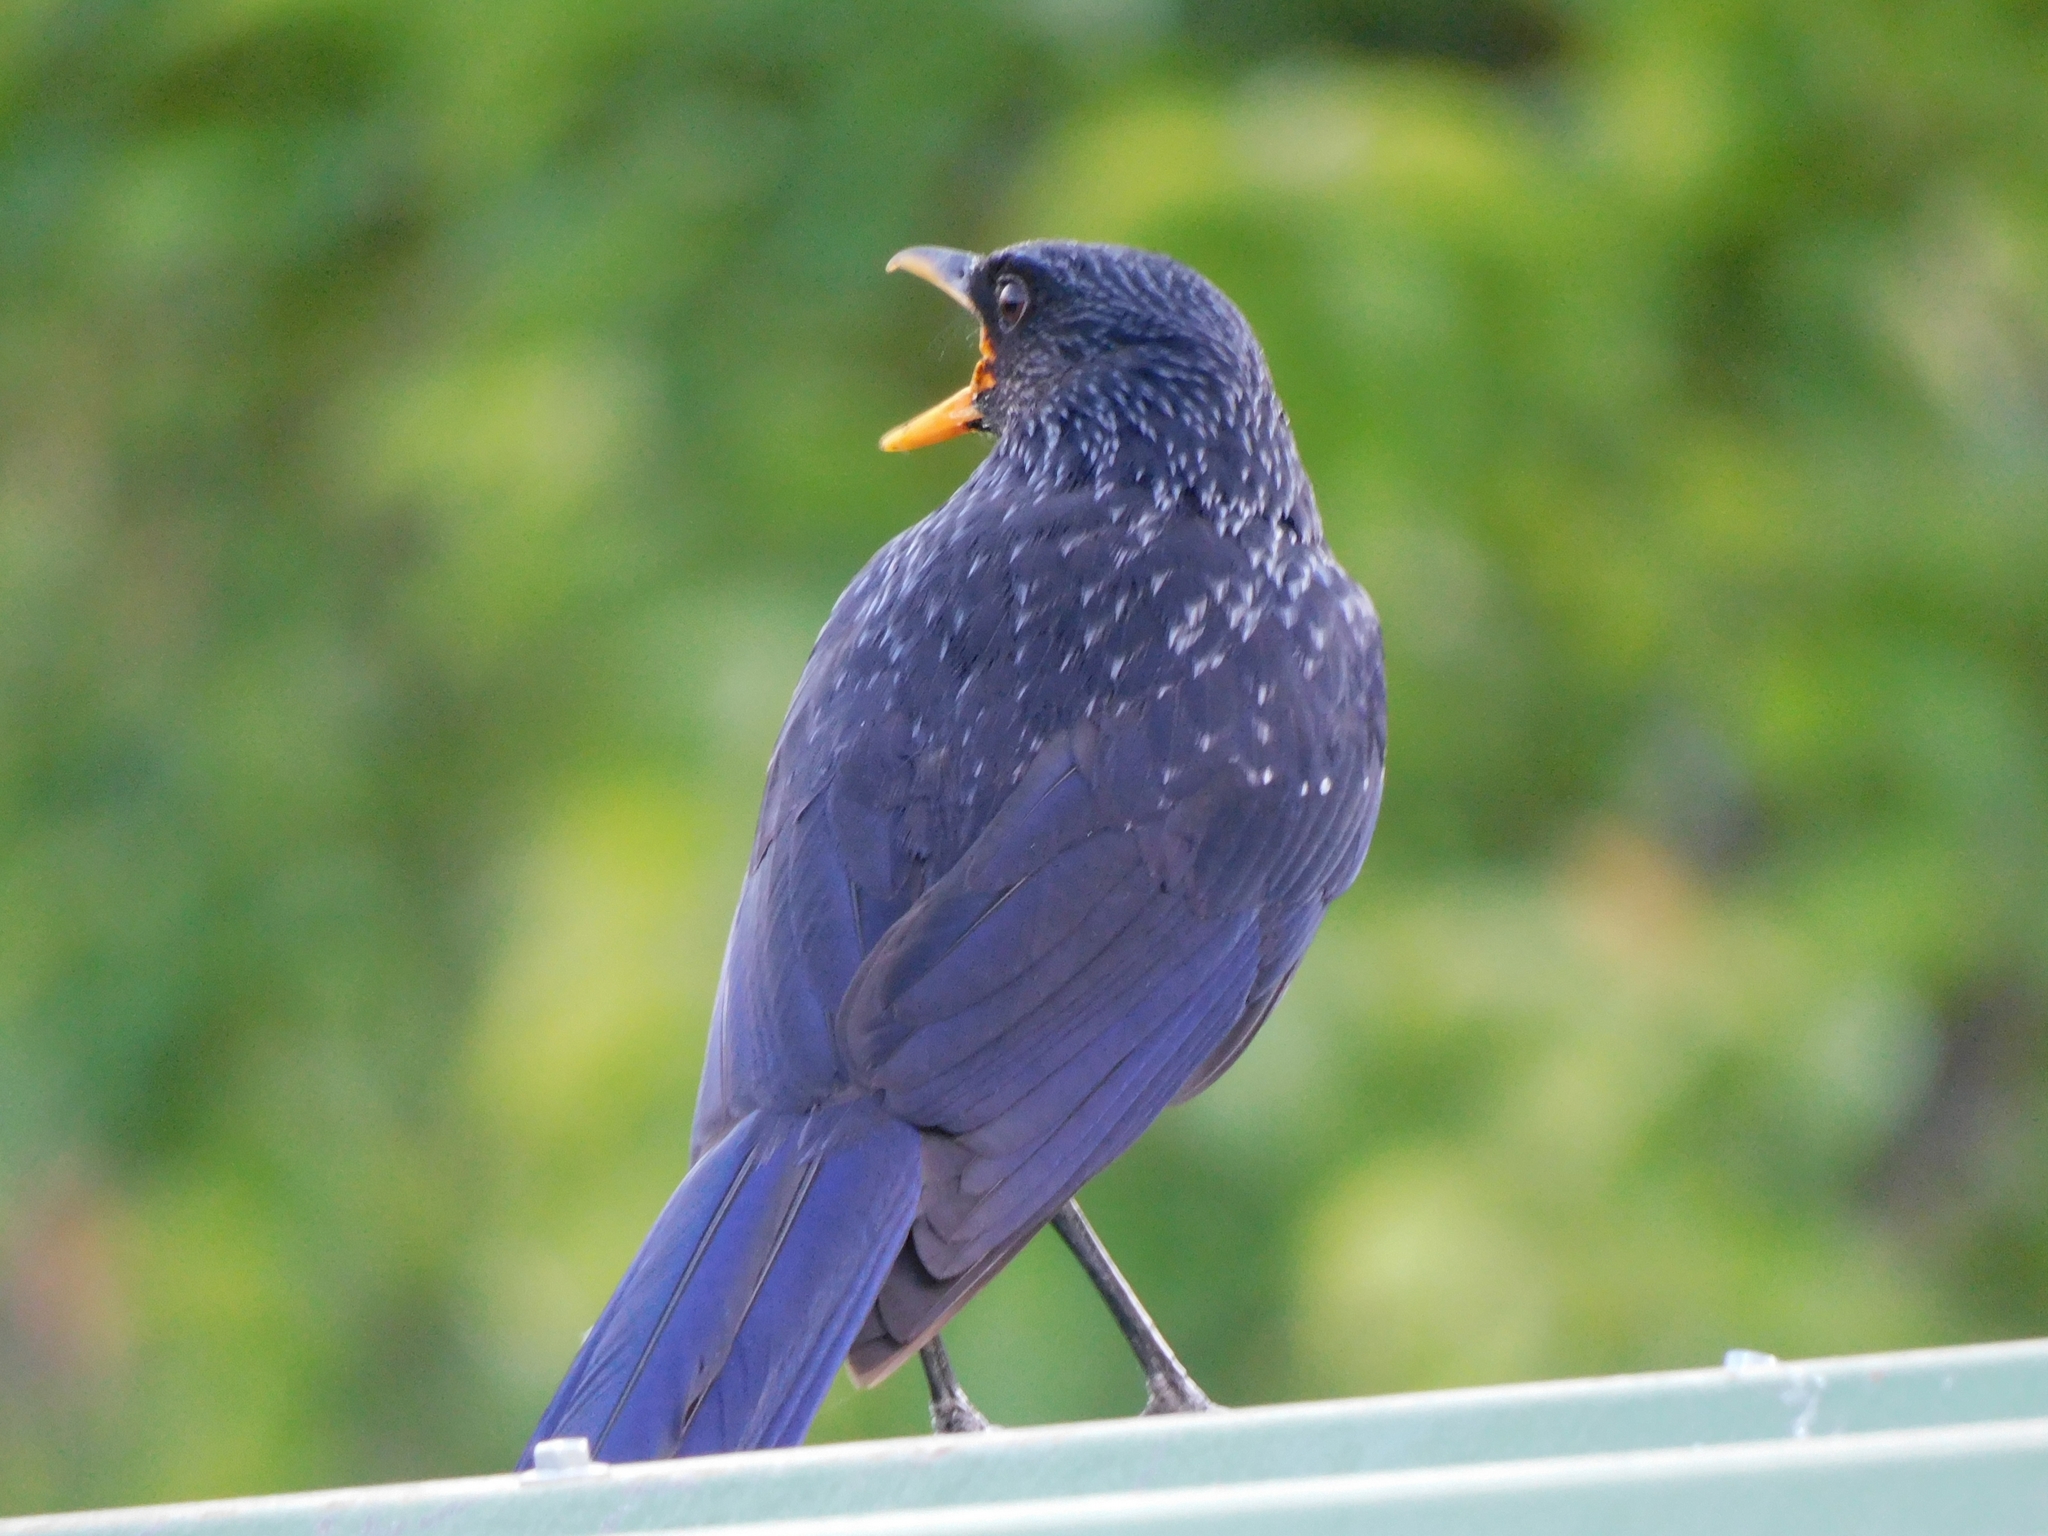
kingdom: Animalia
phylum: Chordata
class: Aves
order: Passeriformes
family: Muscicapidae
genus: Myophonus
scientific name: Myophonus caeruleus
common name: Blue whistling-thrush
